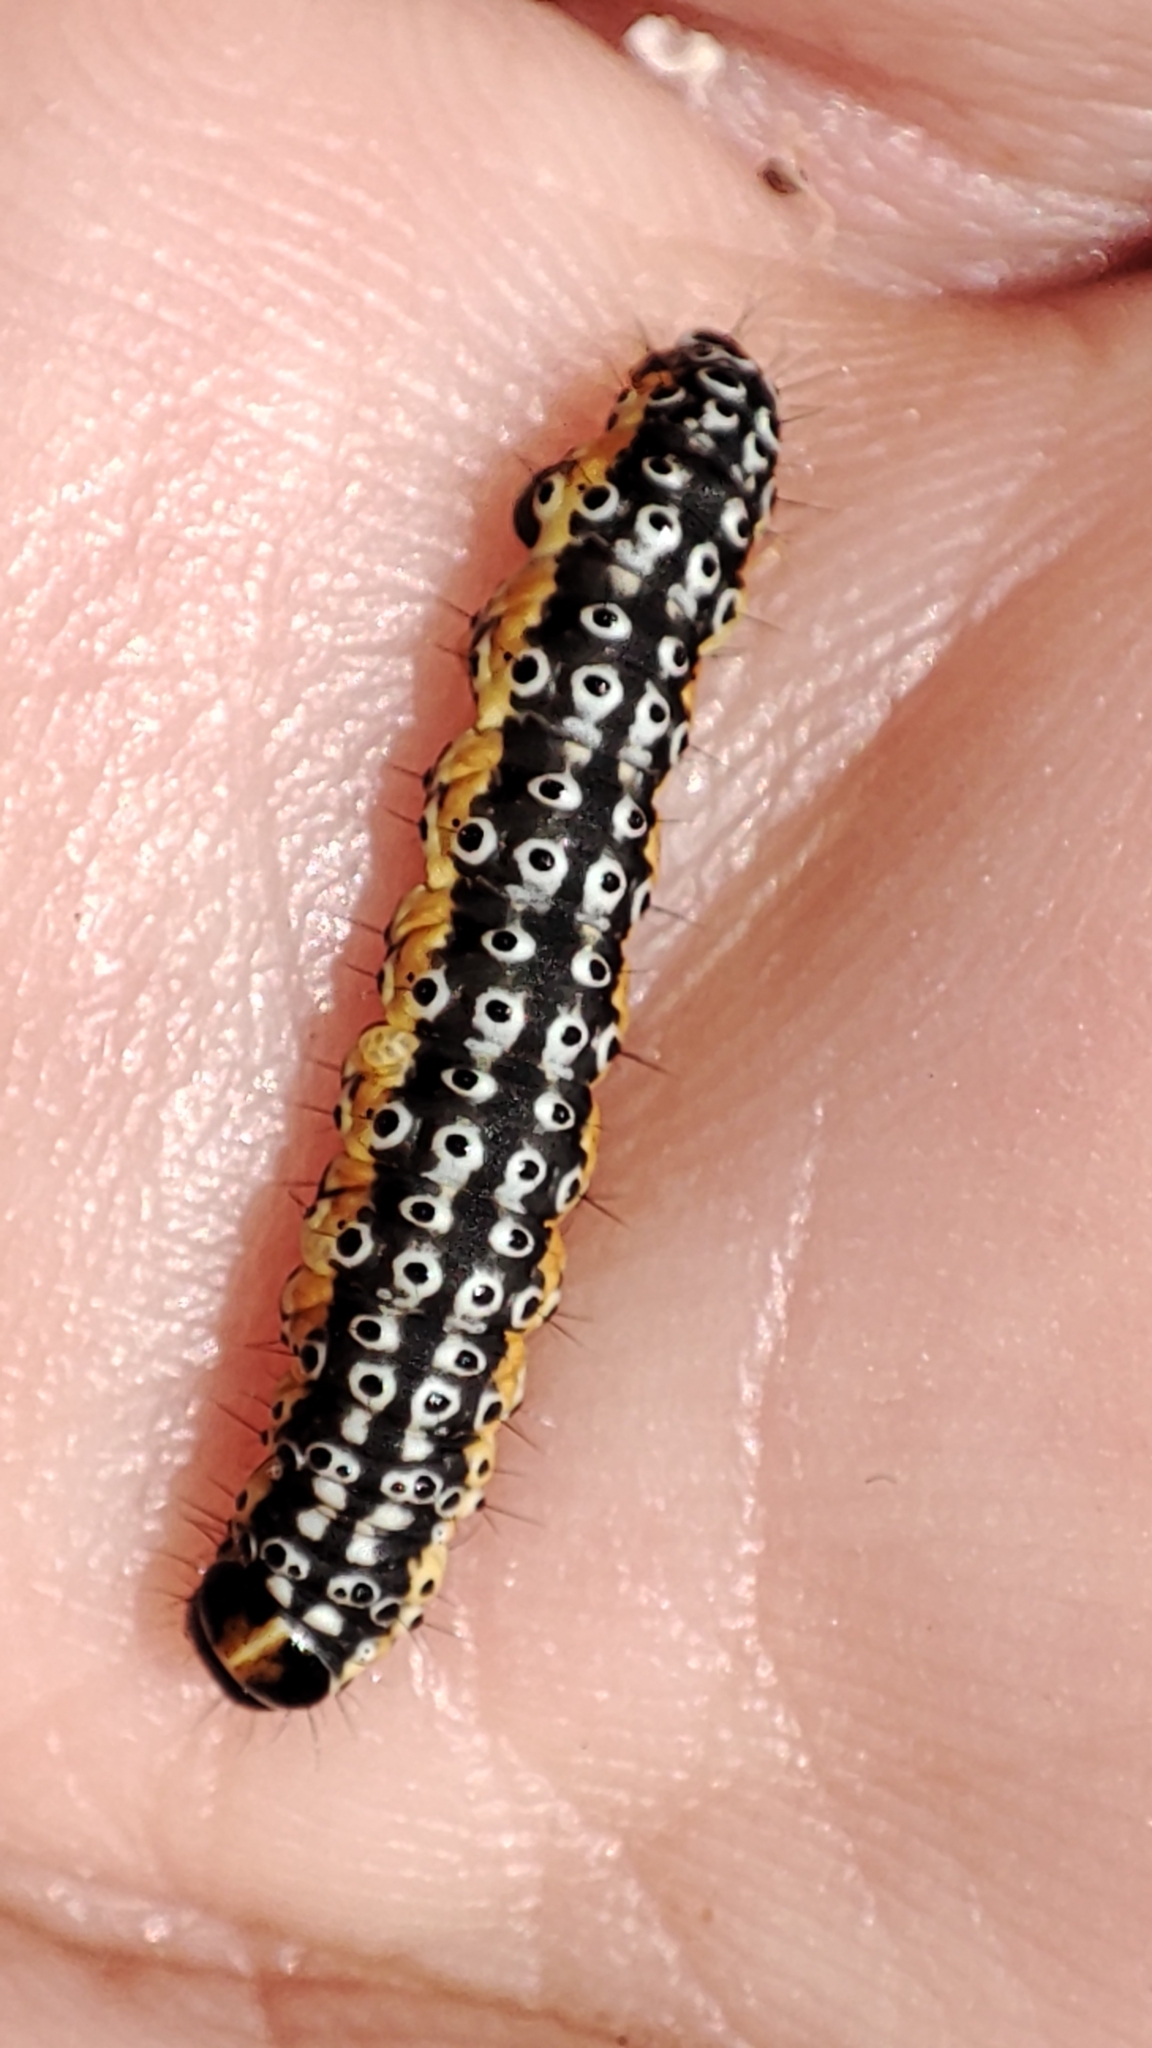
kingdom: Animalia
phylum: Arthropoda
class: Insecta
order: Lepidoptera
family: Depressariidae
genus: Depressaria
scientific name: Depressaria apiella
